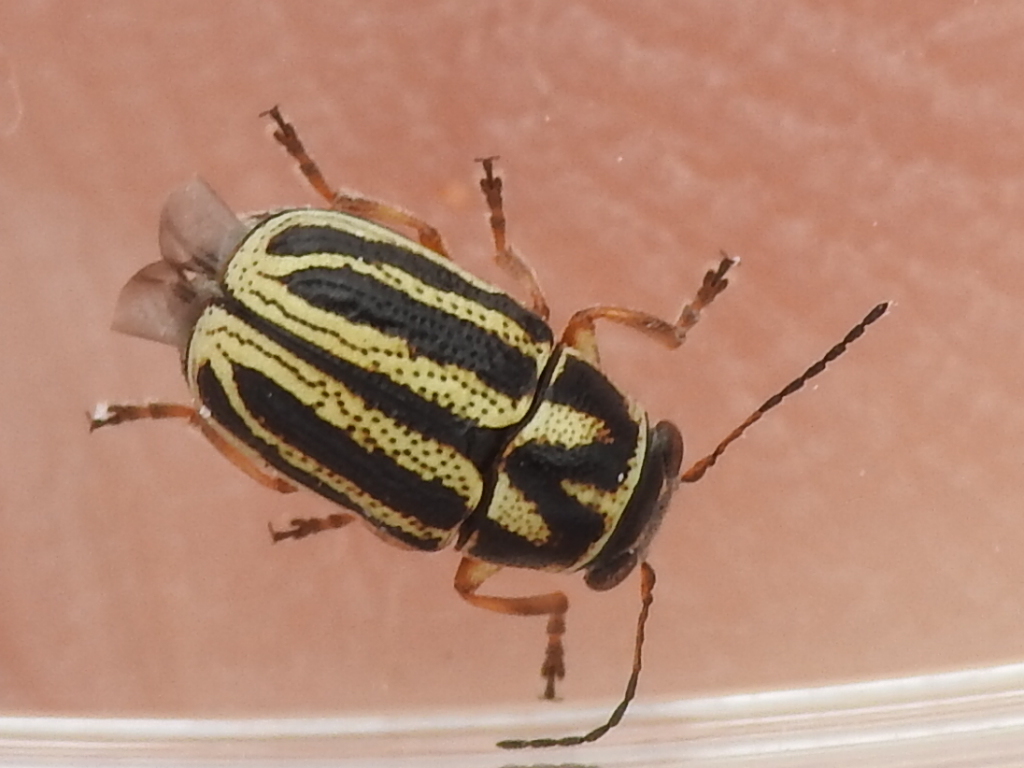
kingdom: Animalia
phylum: Arthropoda
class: Insecta
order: Coleoptera
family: Chrysomelidae
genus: Pachybrachis
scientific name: Pachybrachis nigricornis
